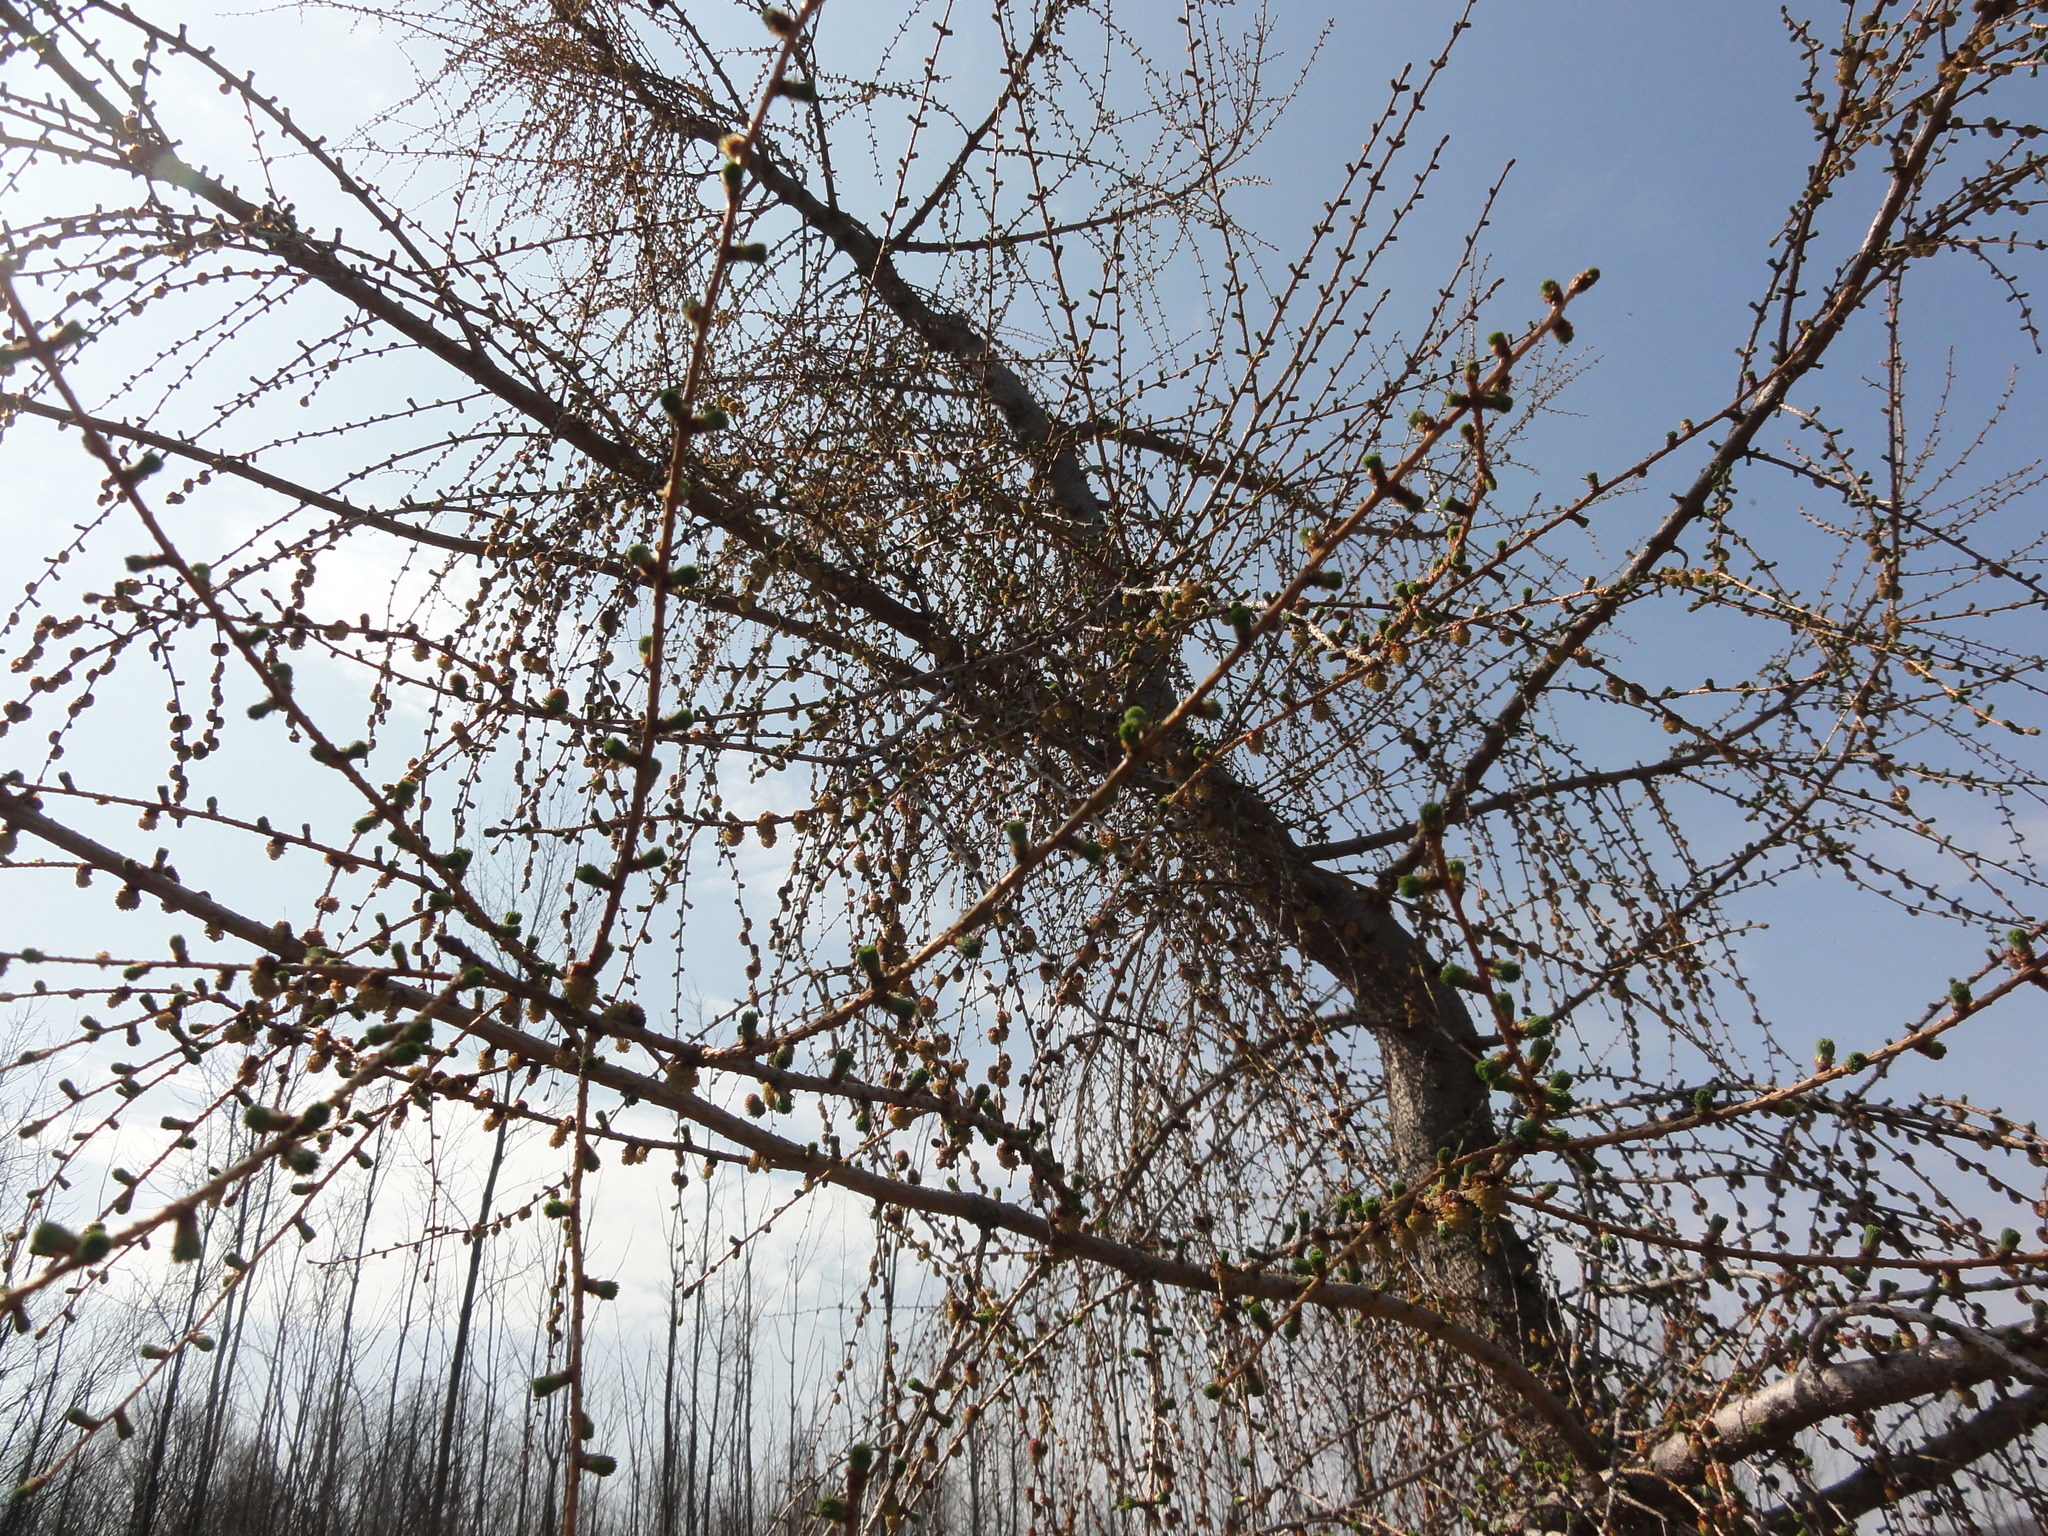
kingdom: Plantae
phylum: Tracheophyta
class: Pinopsida
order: Pinales
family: Pinaceae
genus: Larix
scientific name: Larix decidua
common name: European larch
